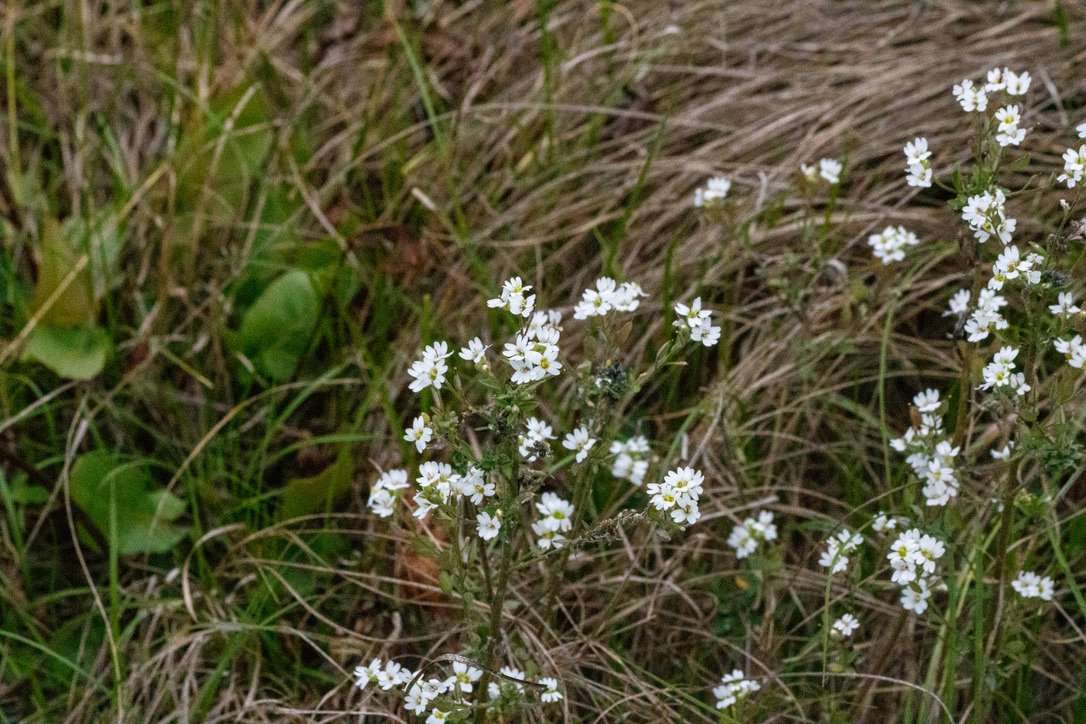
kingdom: Plantae
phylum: Tracheophyta
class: Magnoliopsida
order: Brassicales
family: Brassicaceae
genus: Berteroa
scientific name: Berteroa incana
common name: Hoary alison
